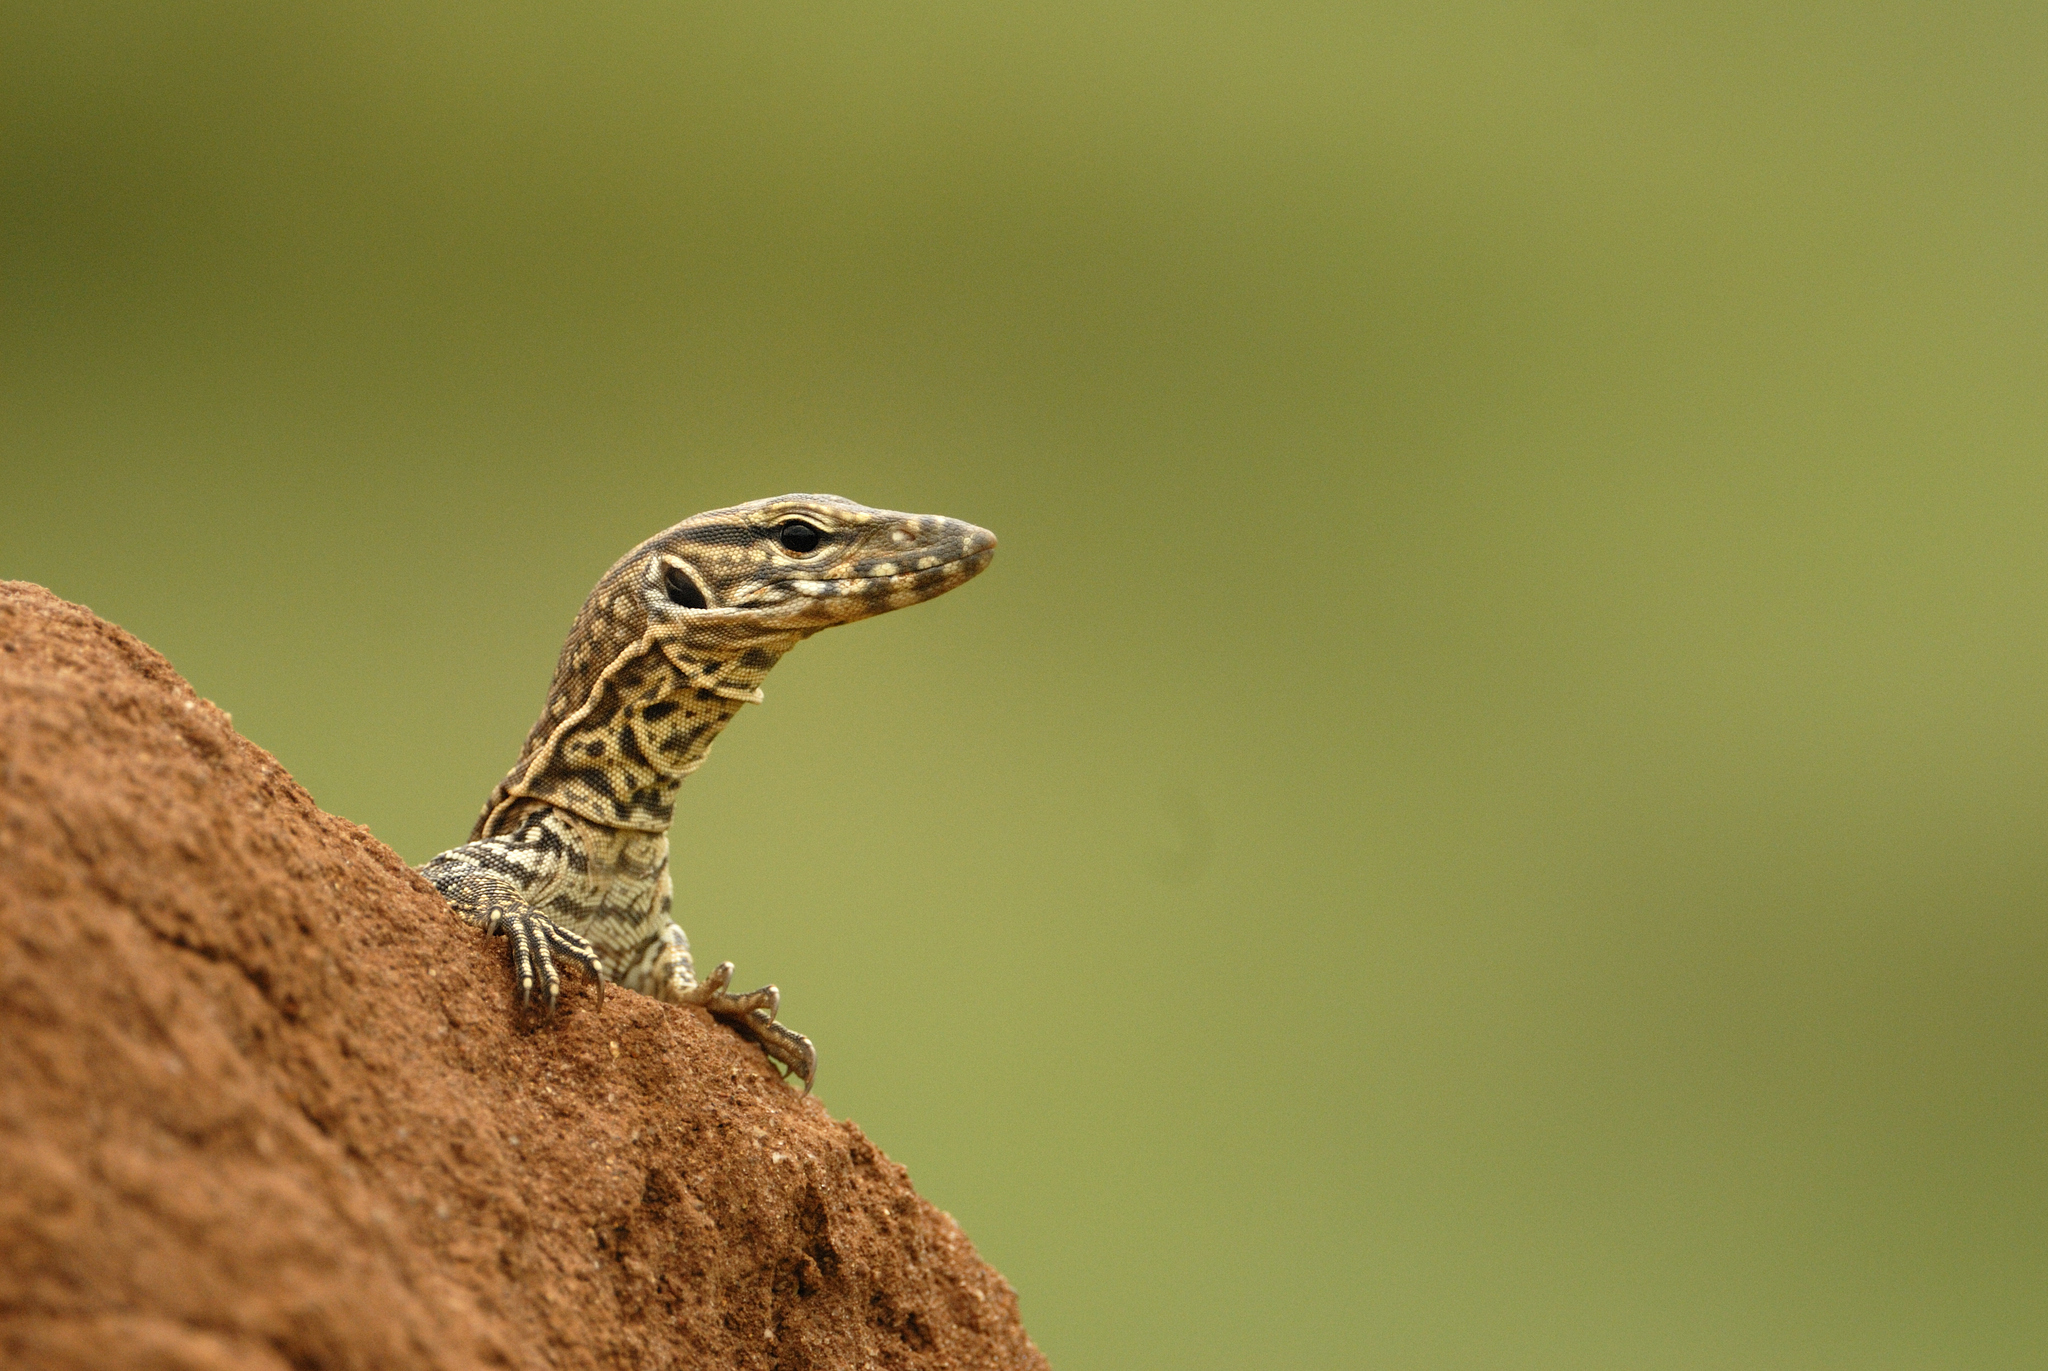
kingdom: Animalia
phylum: Chordata
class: Squamata
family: Varanidae
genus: Varanus
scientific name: Varanus bengalensis
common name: Bengal monitor
